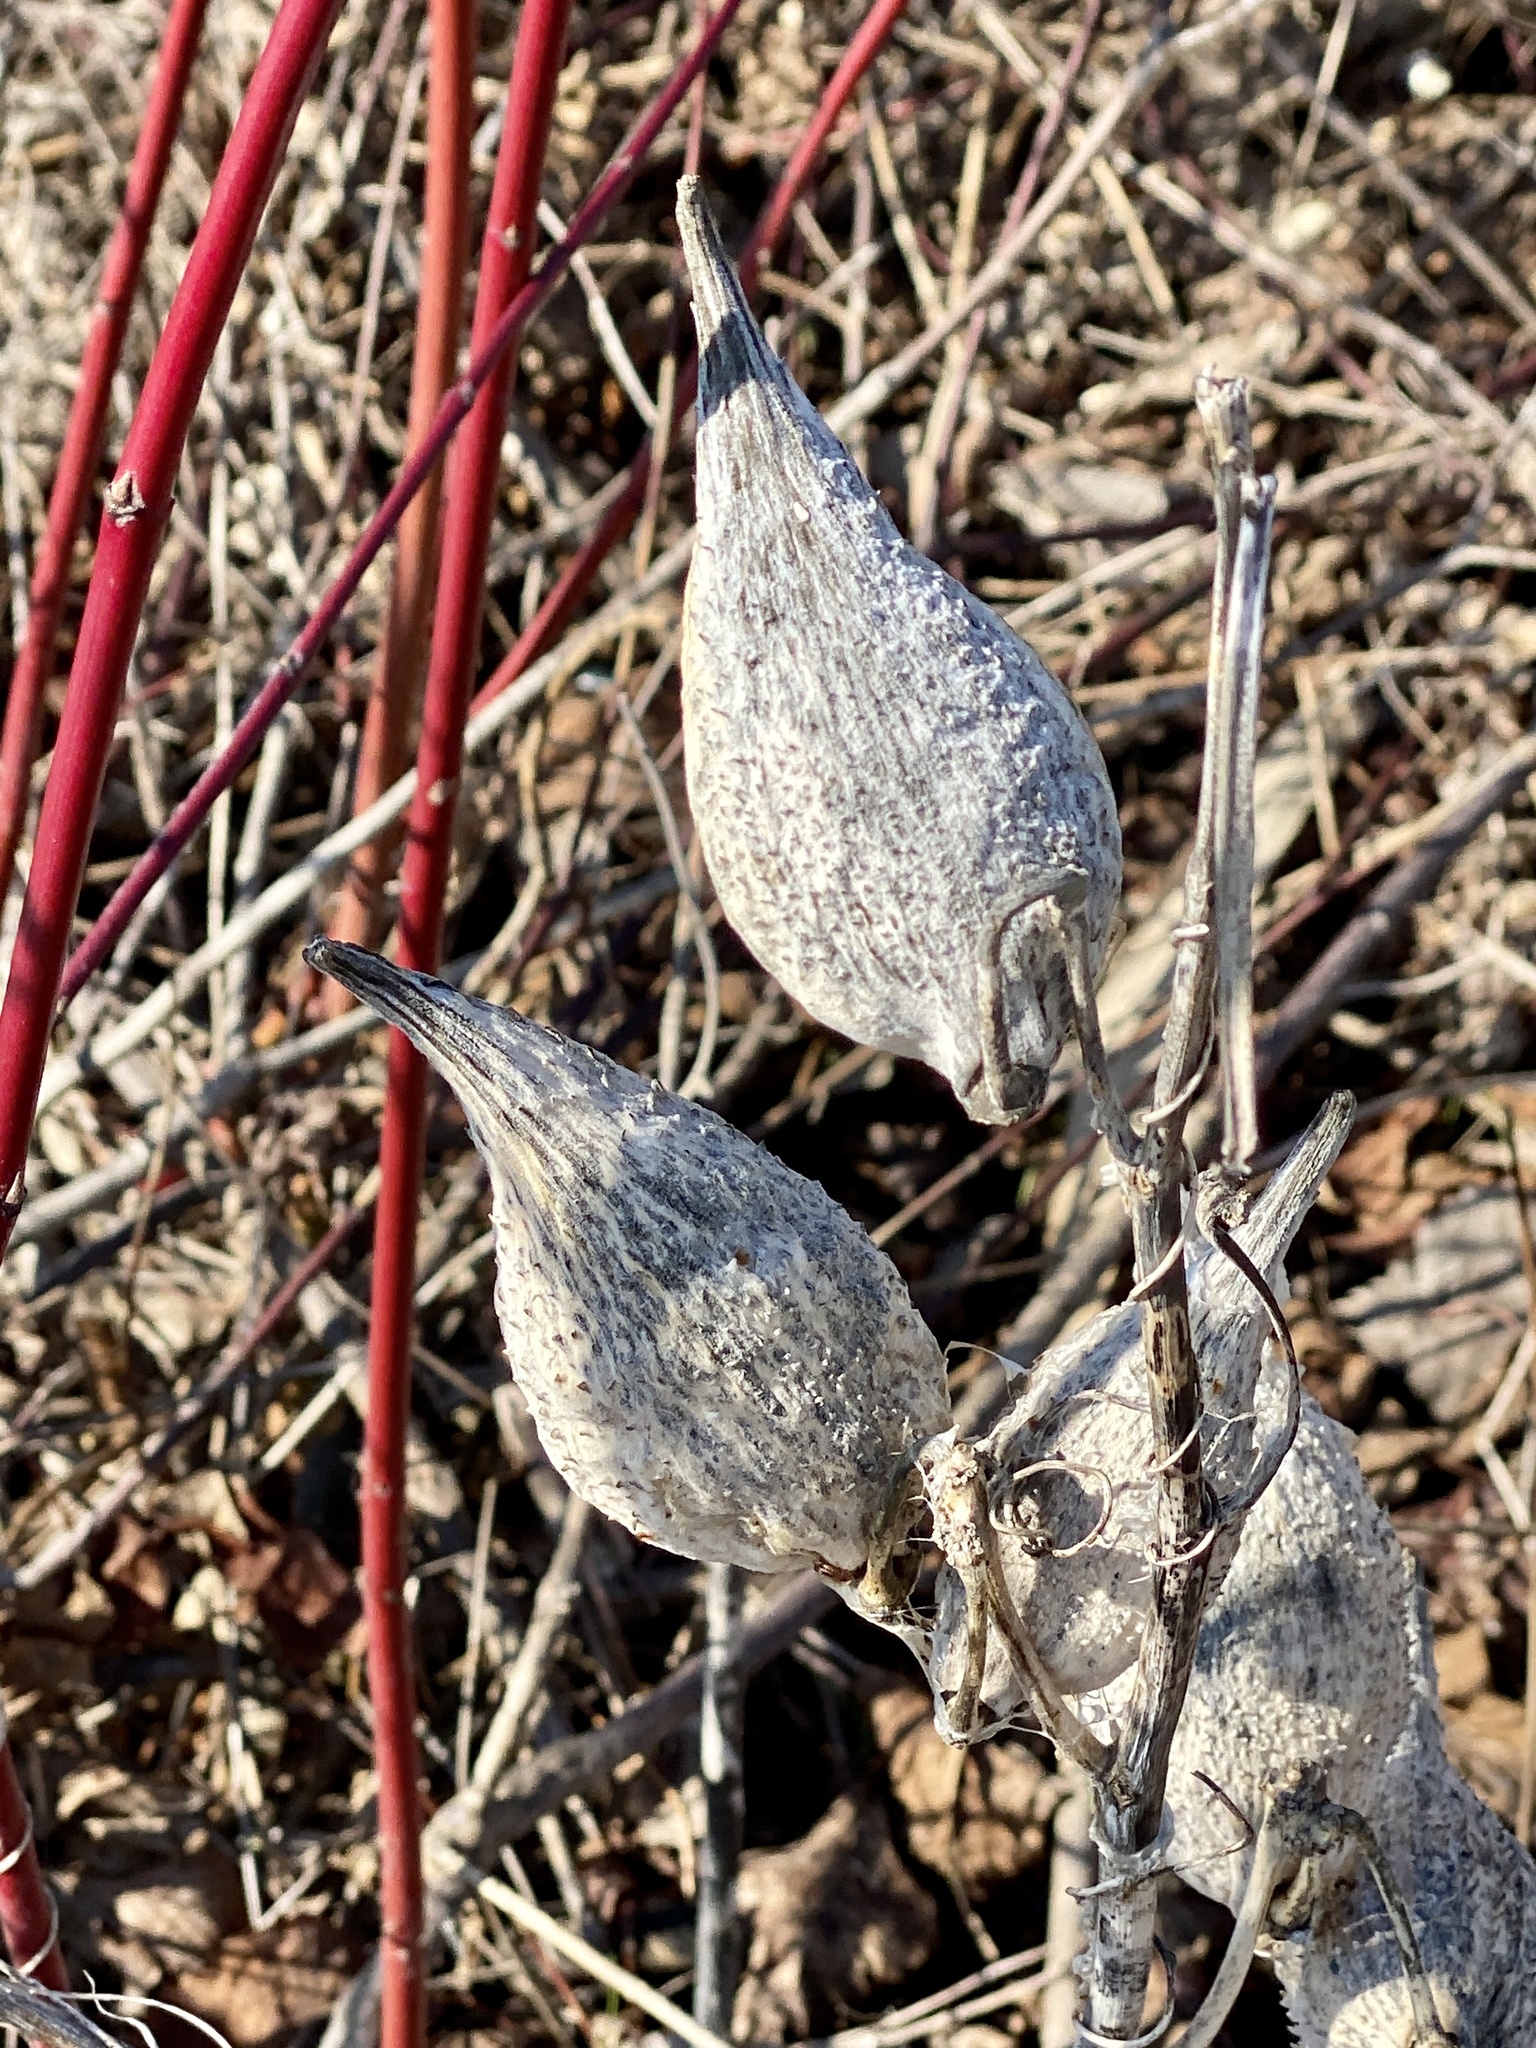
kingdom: Plantae
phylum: Tracheophyta
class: Magnoliopsida
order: Gentianales
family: Apocynaceae
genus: Asclepias
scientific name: Asclepias syriaca
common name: Common milkweed
